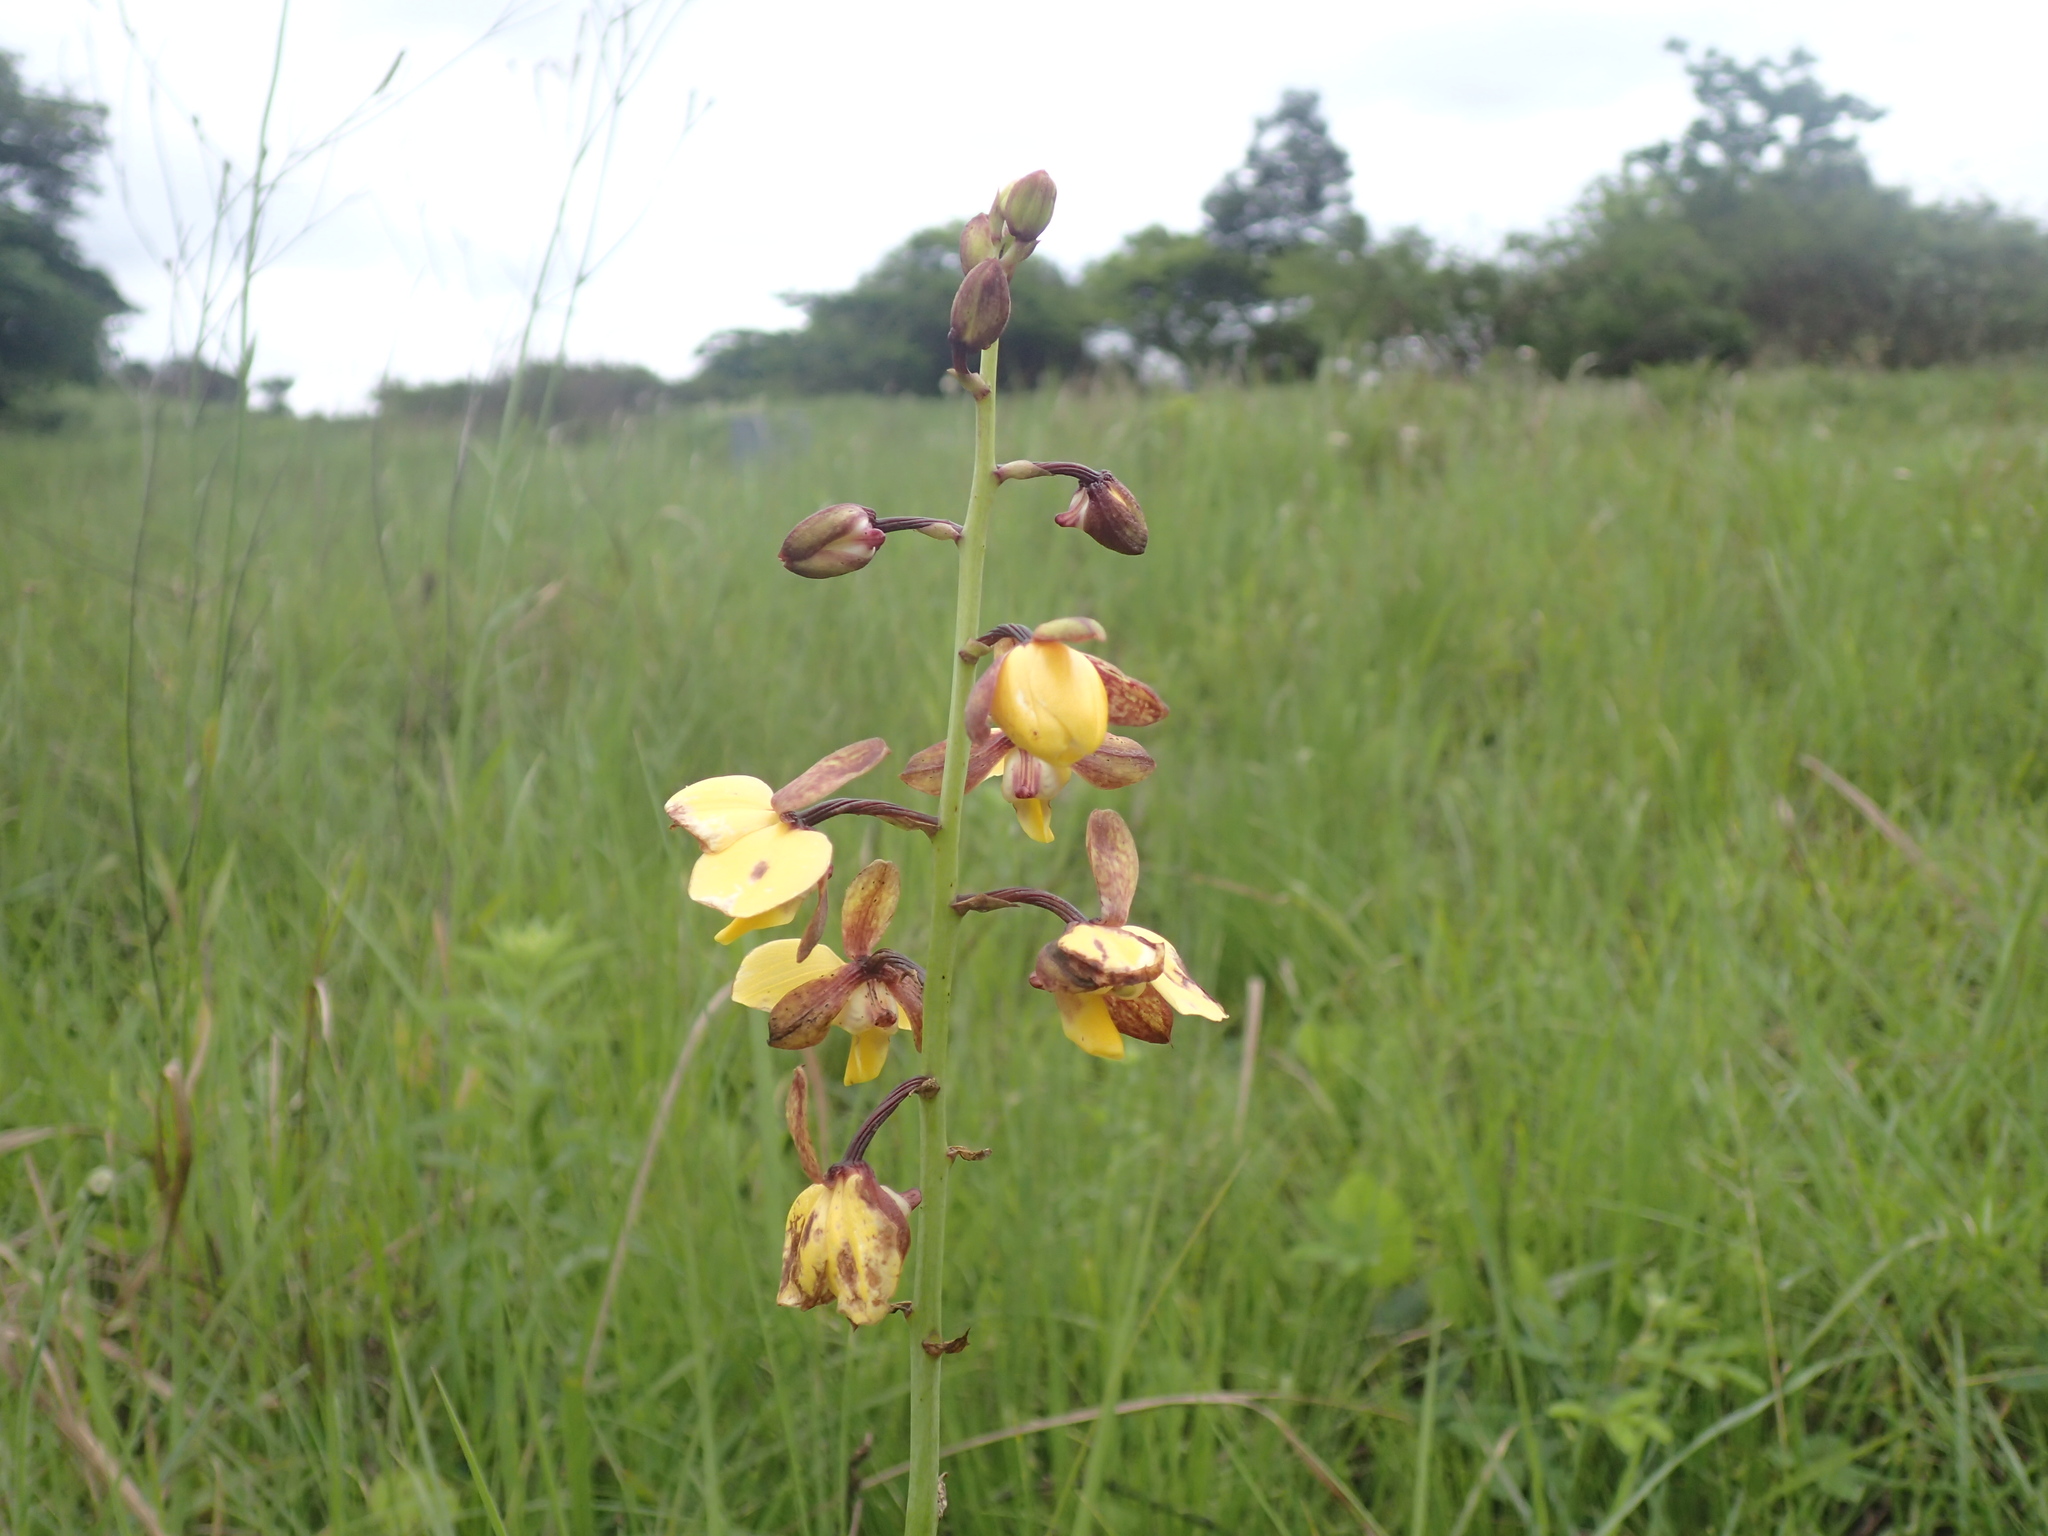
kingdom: Plantae
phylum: Tracheophyta
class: Liliopsida
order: Asparagales
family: Orchidaceae
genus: Eulophia
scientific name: Eulophia parviflora
